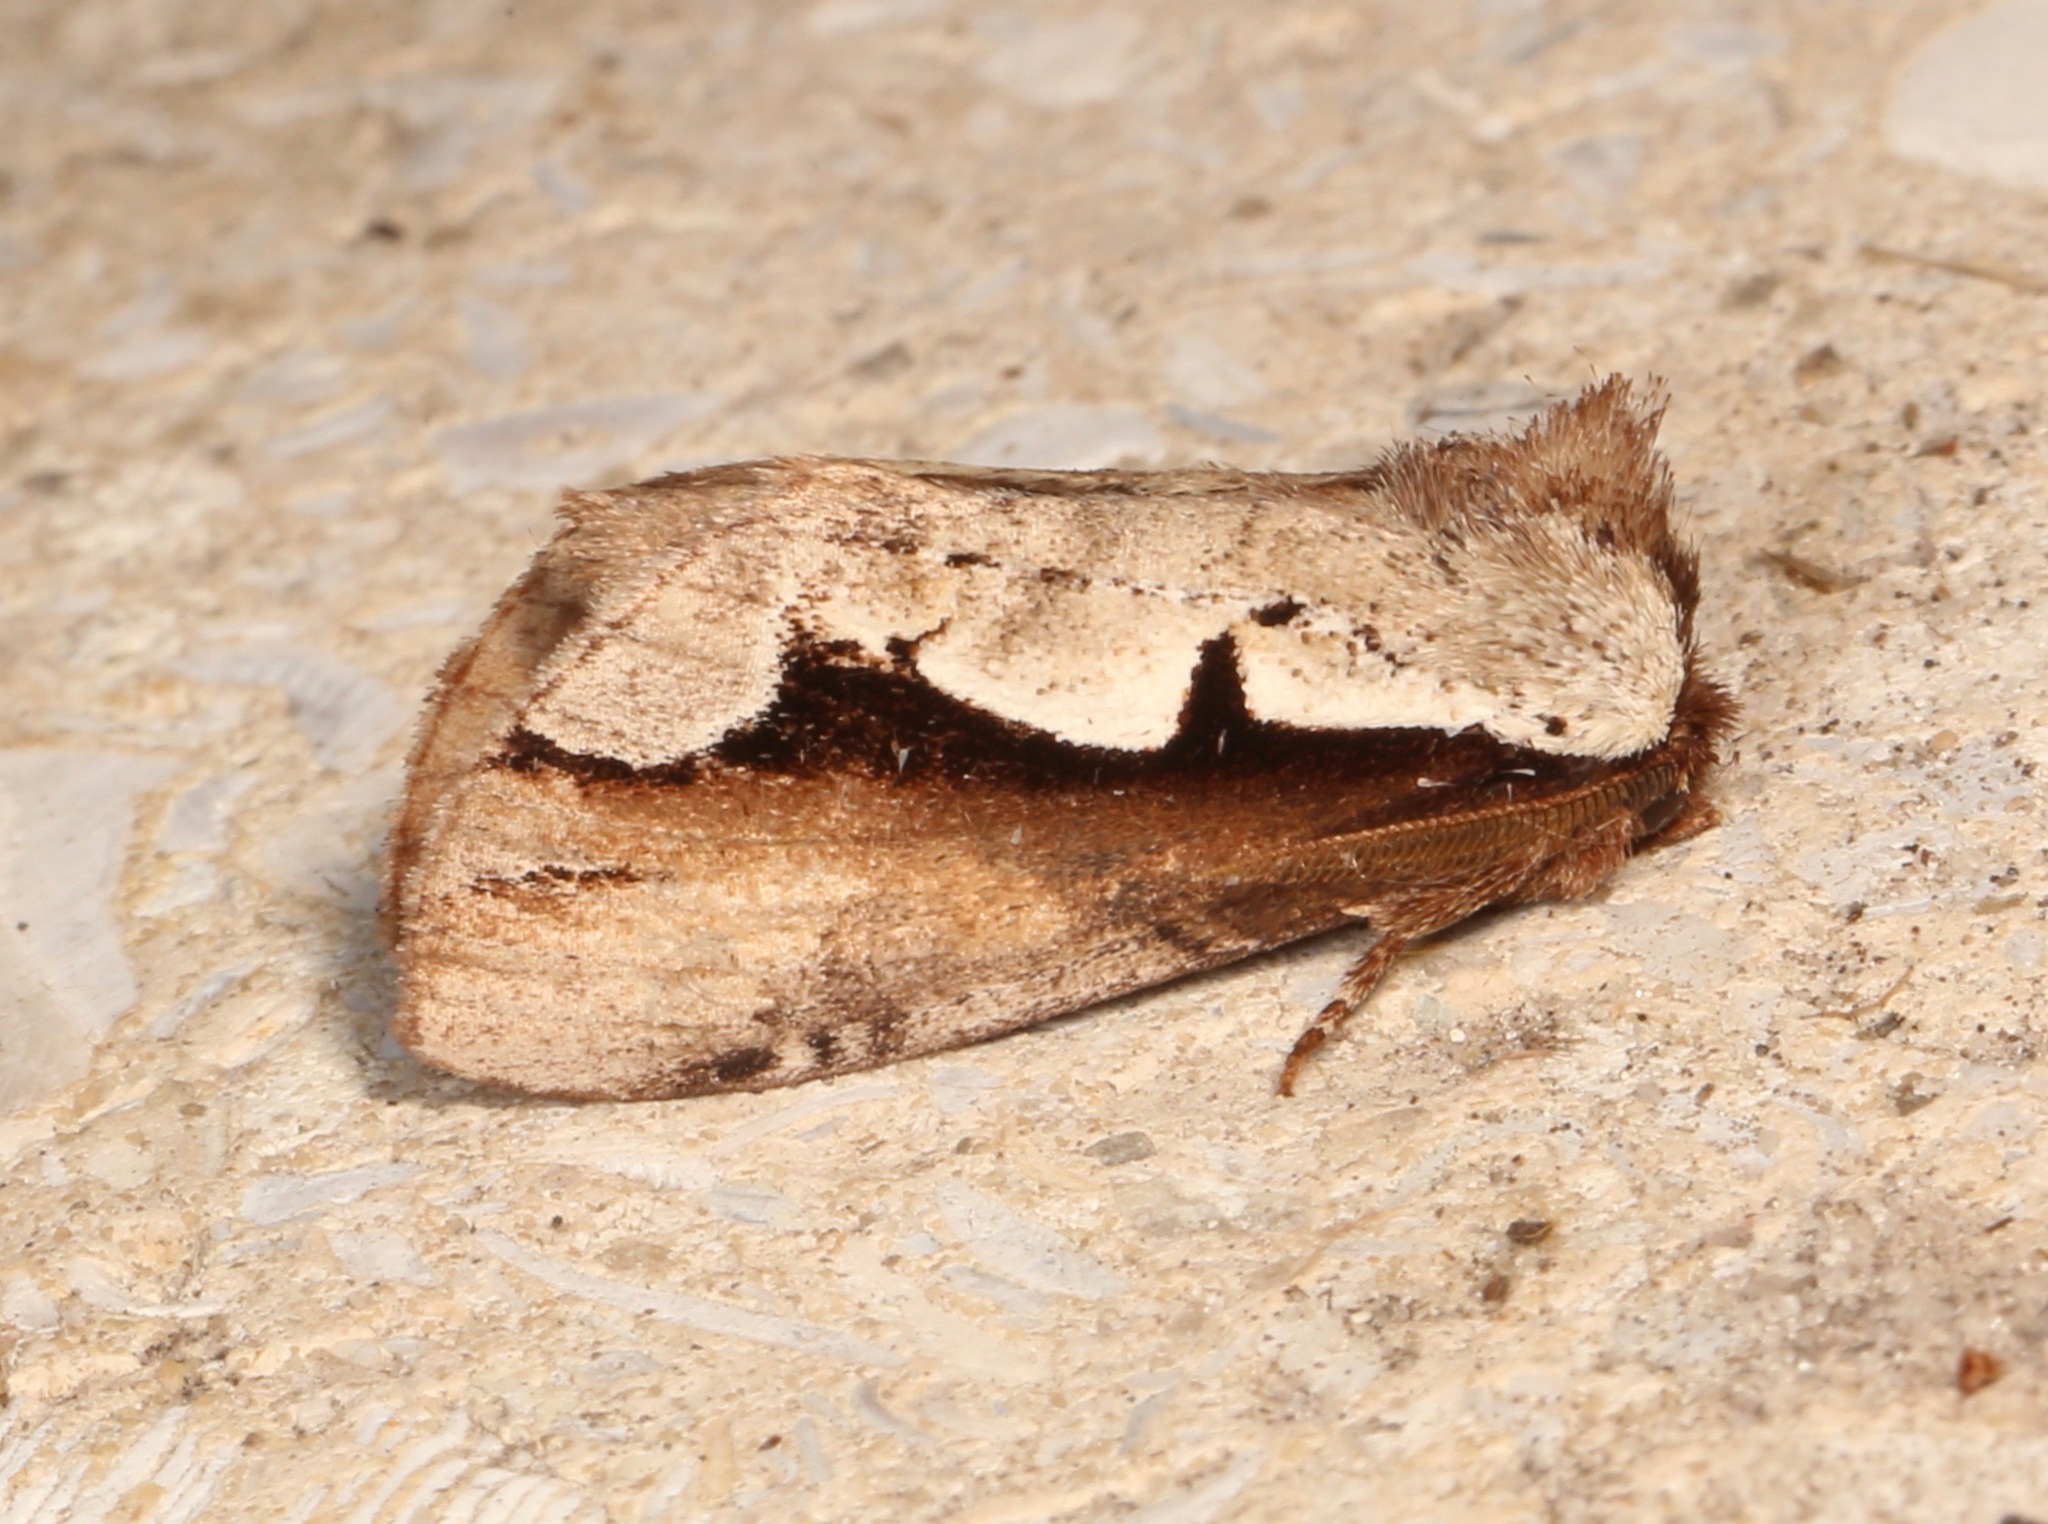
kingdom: Animalia
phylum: Arthropoda
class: Insecta
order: Lepidoptera
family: Notodontidae
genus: Nerice
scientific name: Nerice bidentata
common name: Double-toothed prominent
